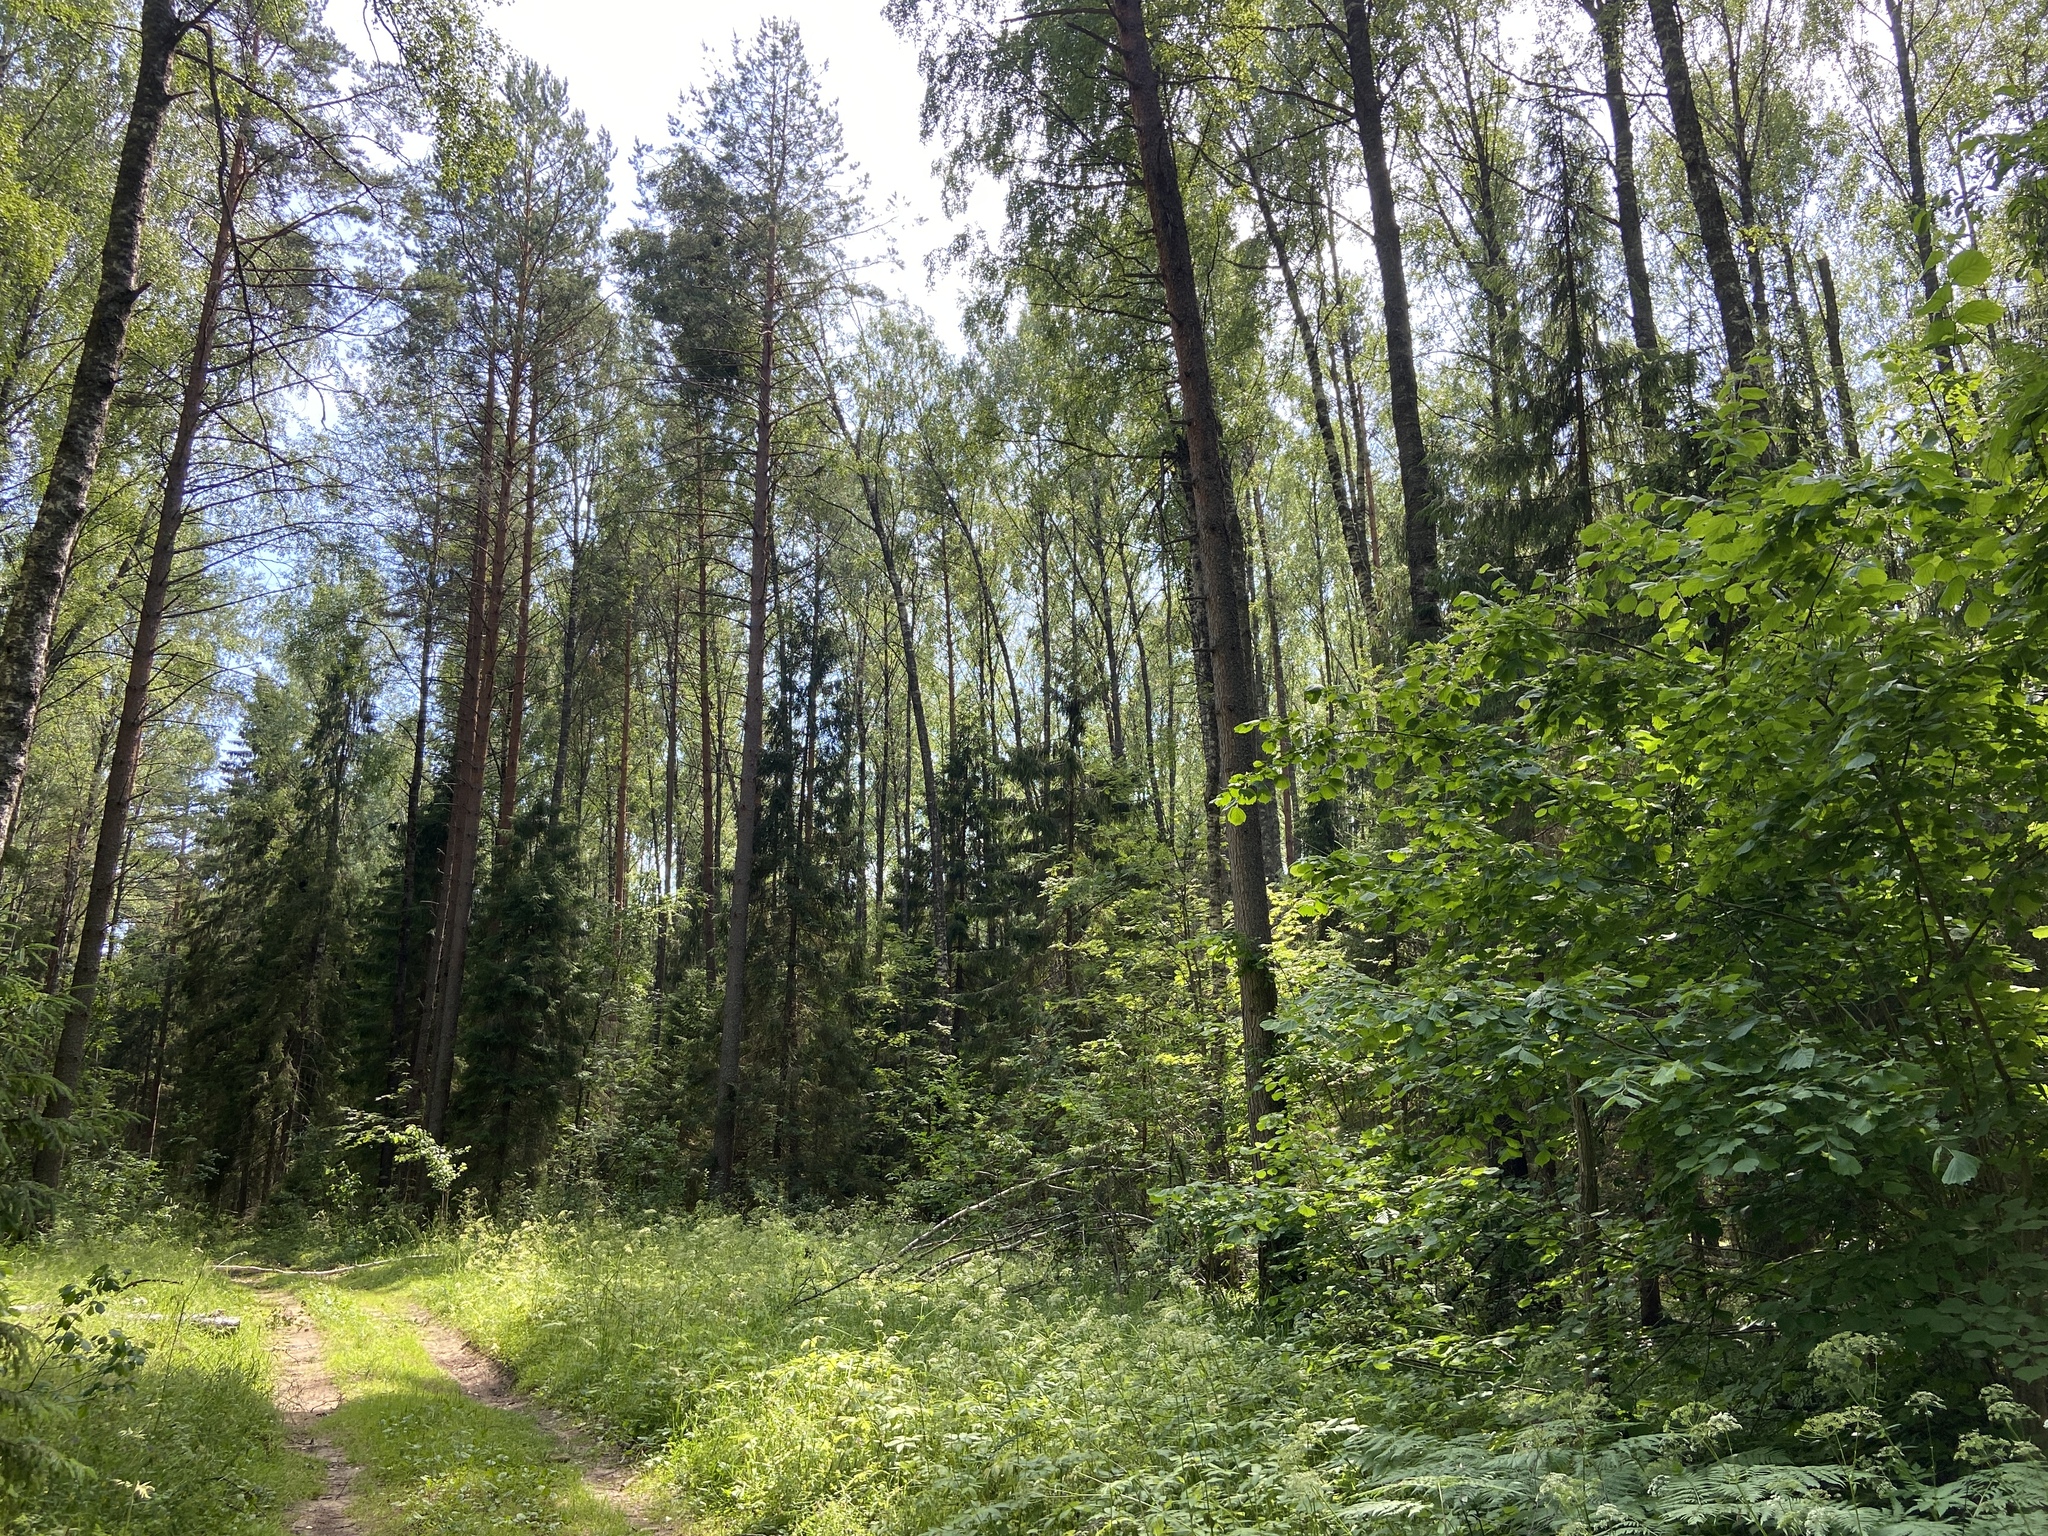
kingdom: Plantae
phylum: Tracheophyta
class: Pinopsida
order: Pinales
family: Pinaceae
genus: Pinus
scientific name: Pinus sylvestris
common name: Scots pine
